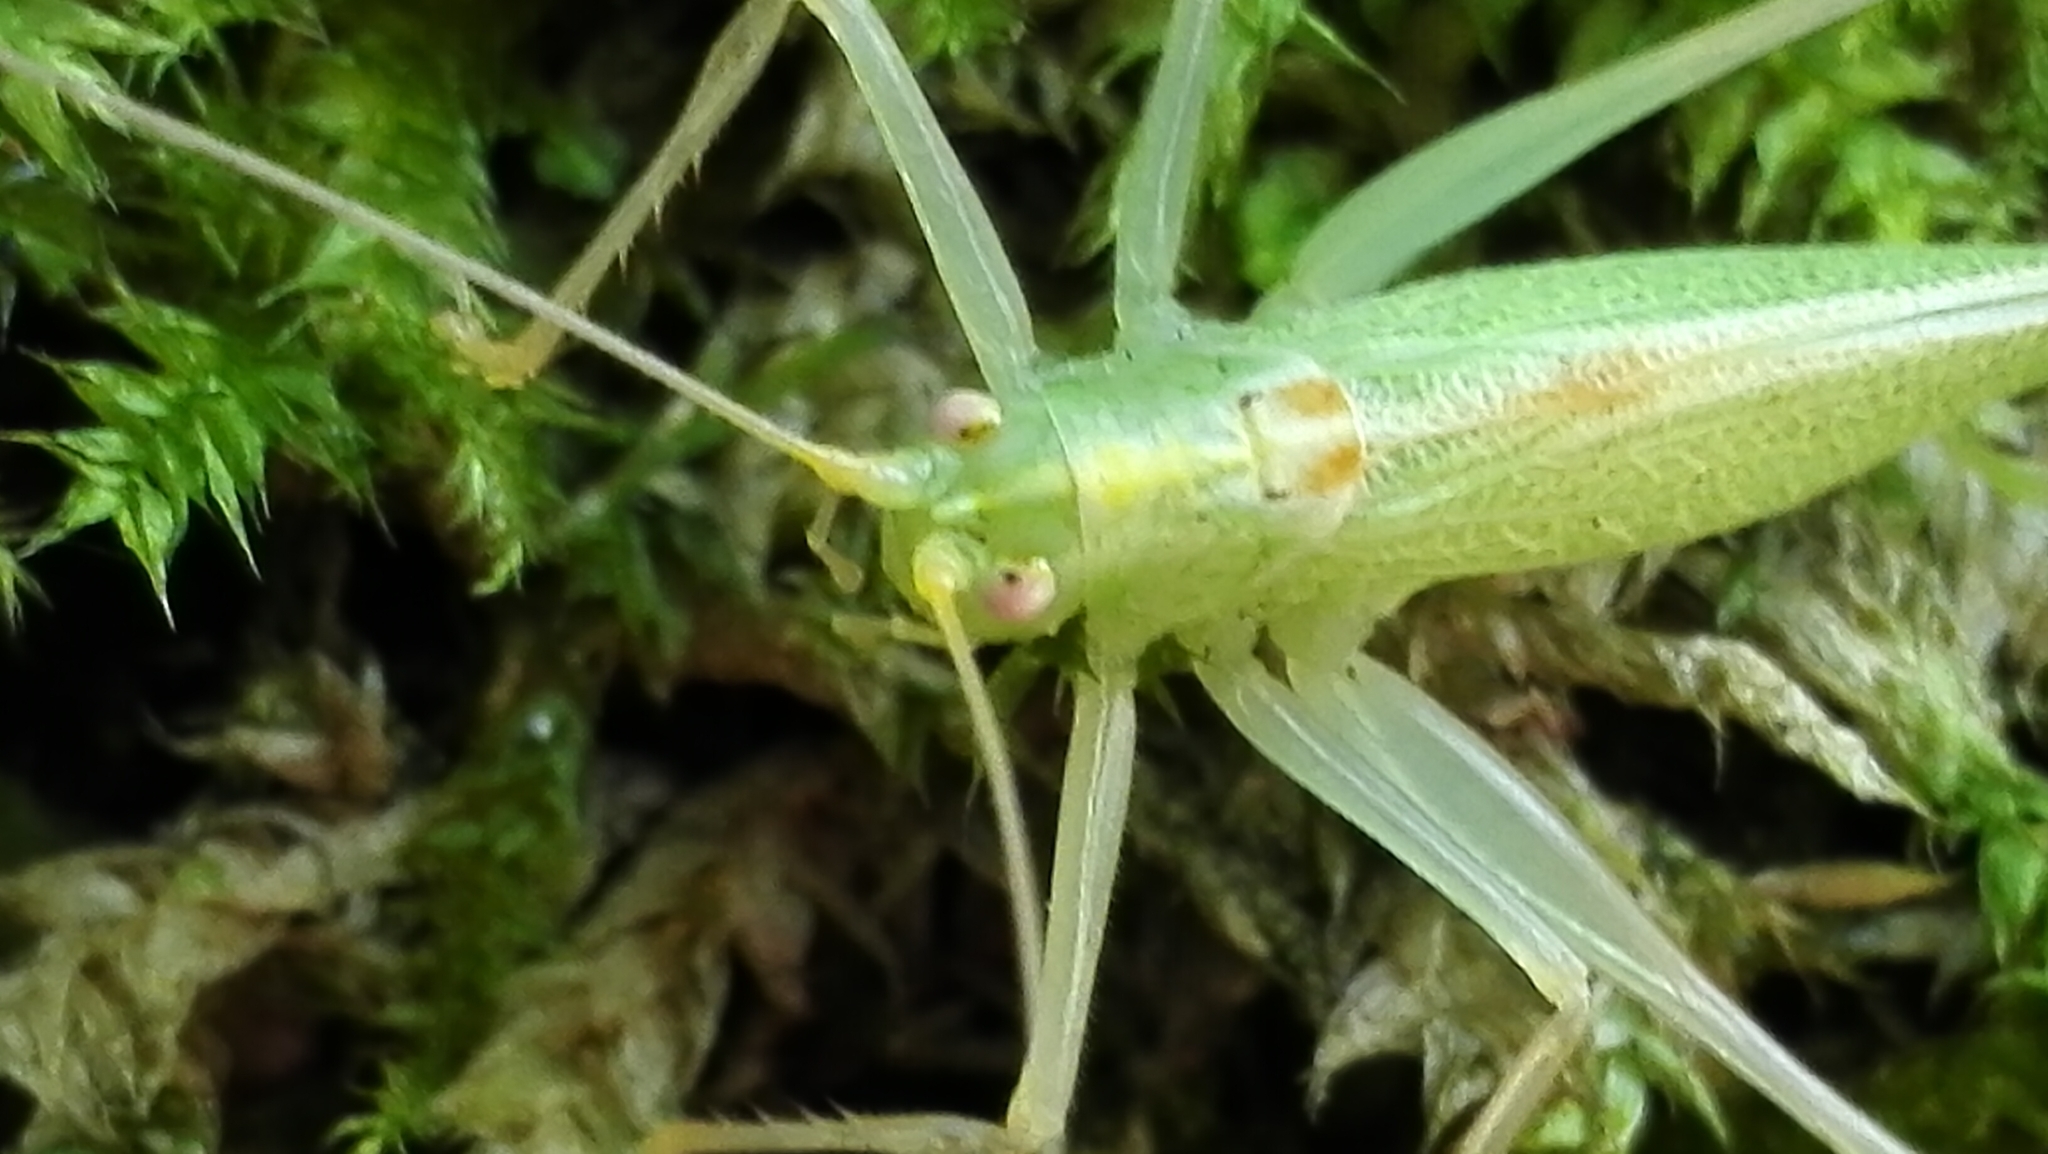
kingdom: Animalia
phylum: Arthropoda
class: Insecta
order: Orthoptera
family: Tettigoniidae
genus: Meconema
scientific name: Meconema thalassinum
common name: Oak bush-cricket
